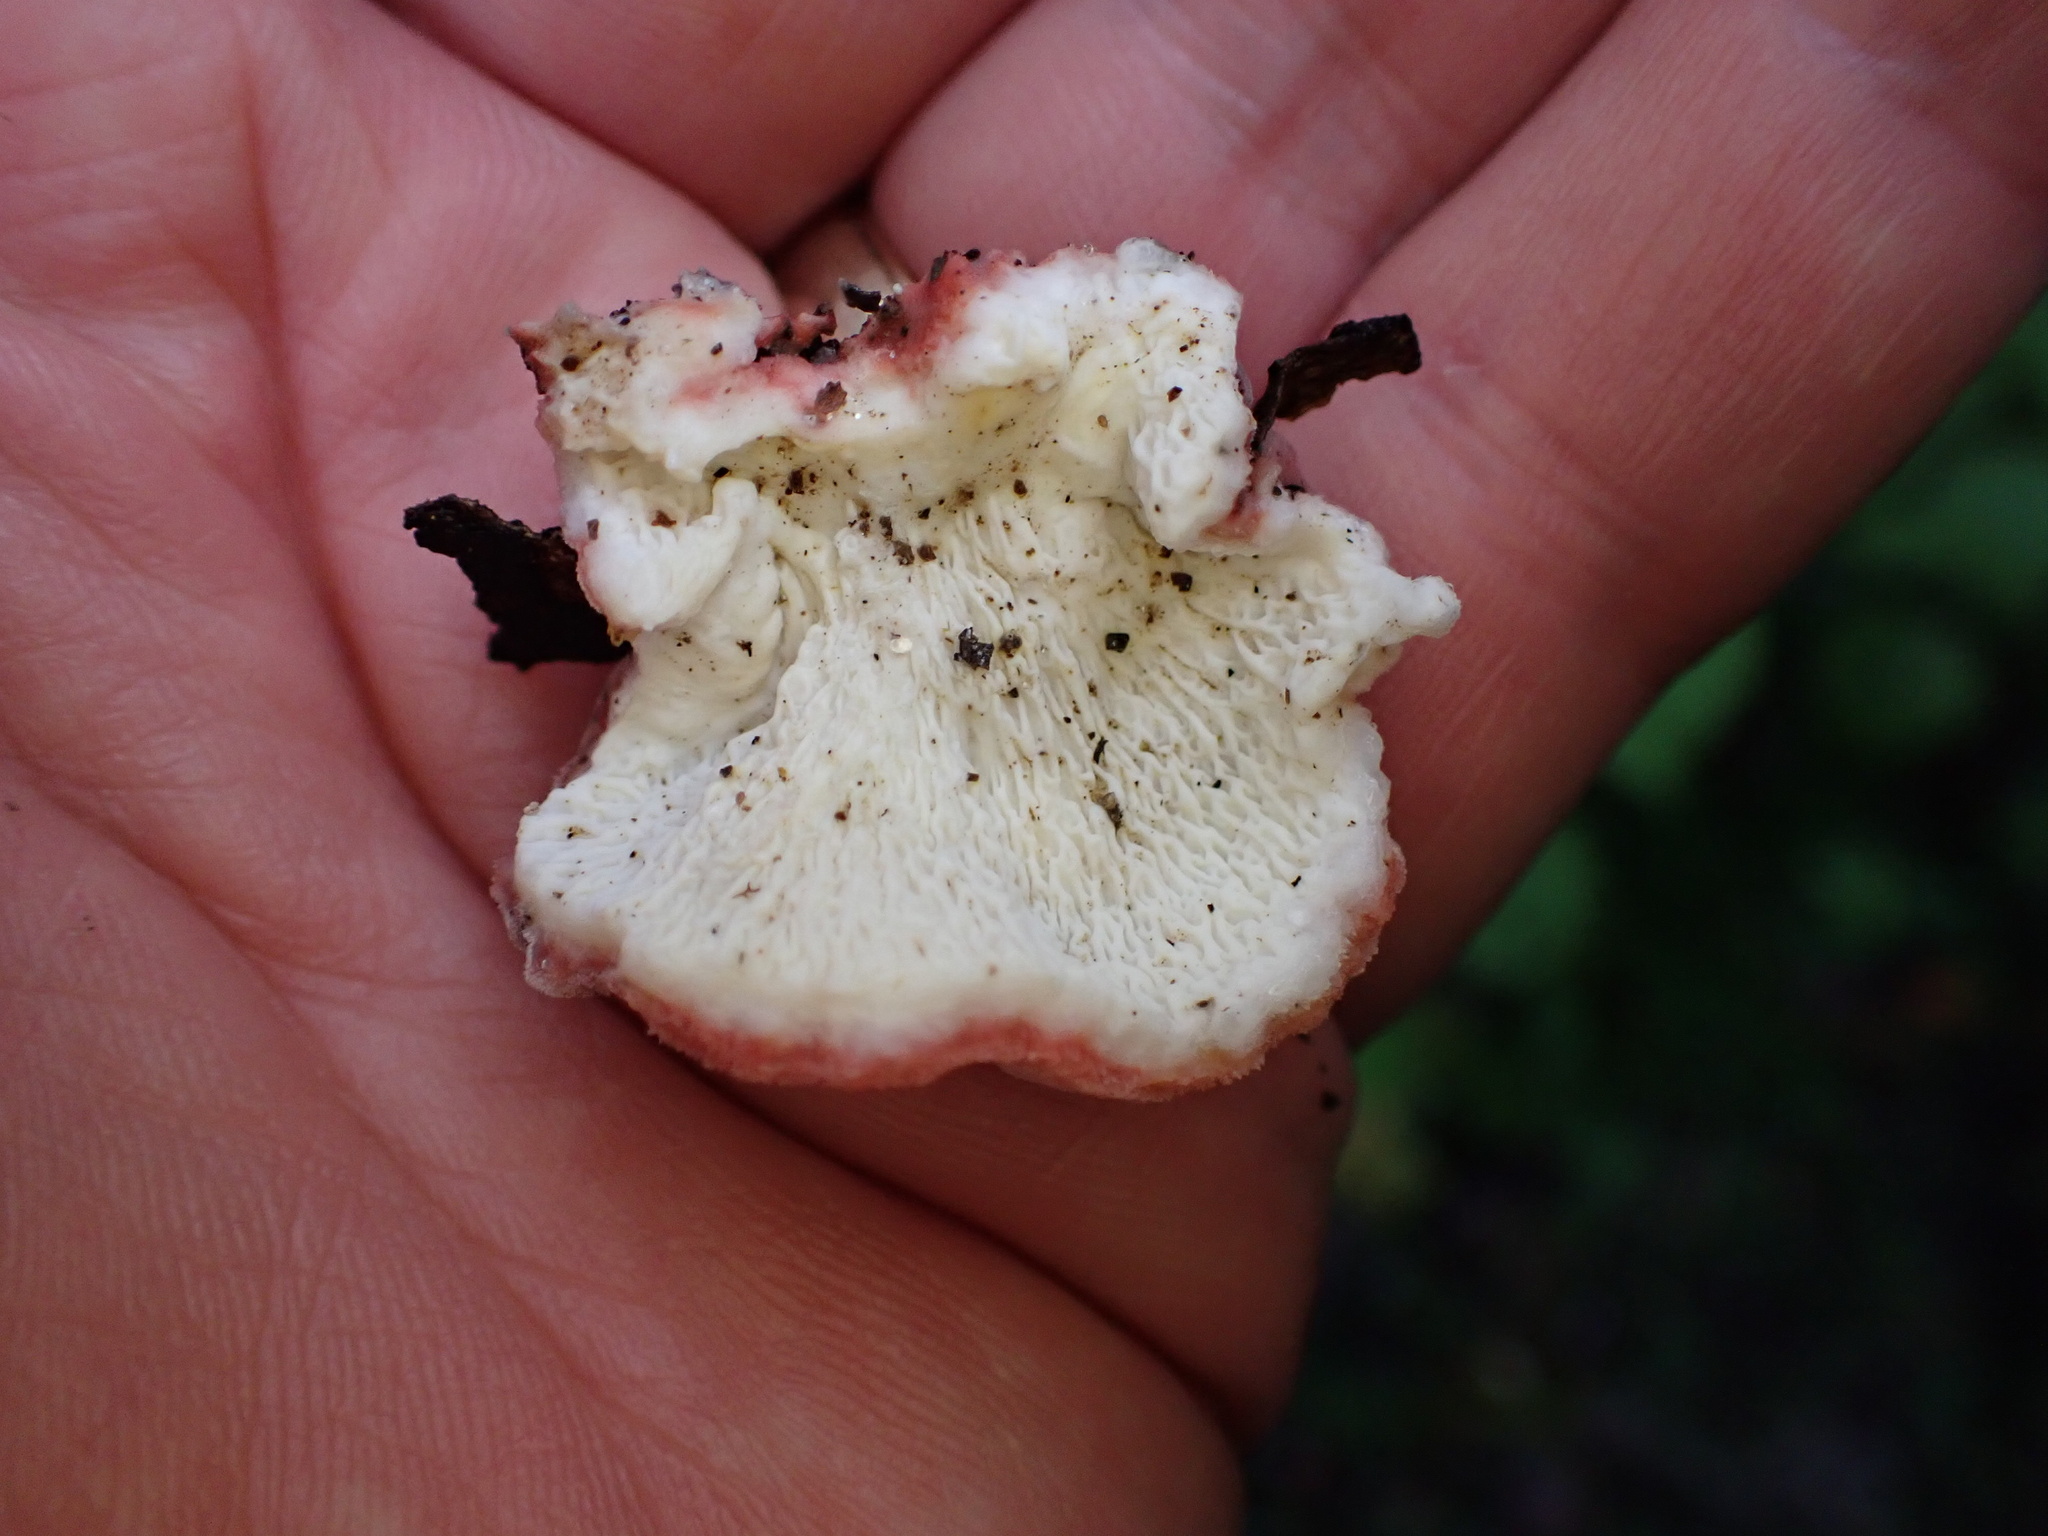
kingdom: Fungi
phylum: Basidiomycota
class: Agaricomycetes
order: Polyporales
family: Irpicaceae
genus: Byssomerulius
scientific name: Byssomerulius incarnatus
